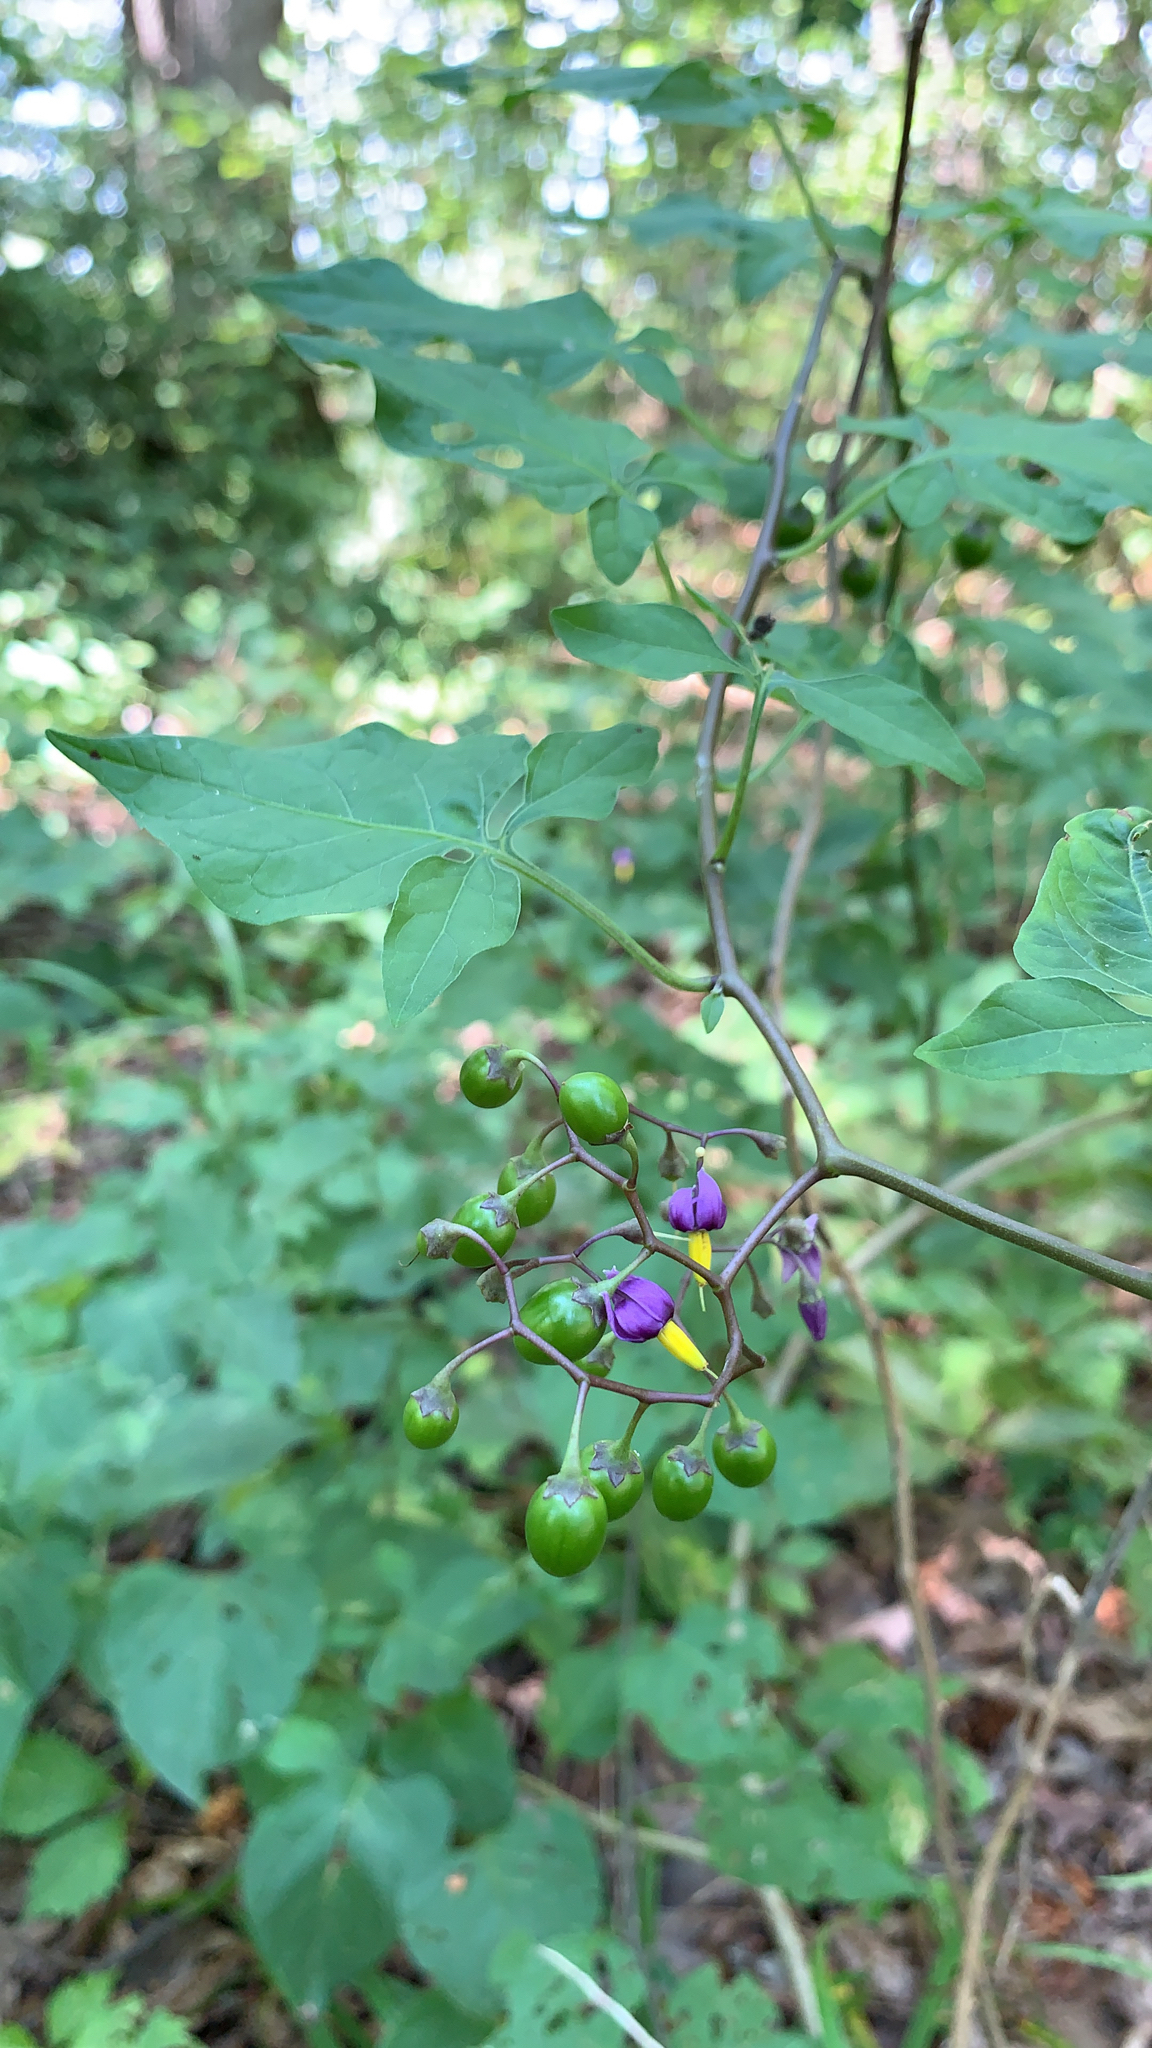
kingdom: Plantae
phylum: Tracheophyta
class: Magnoliopsida
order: Solanales
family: Solanaceae
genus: Solanum
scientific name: Solanum dulcamara
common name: Climbing nightshade
